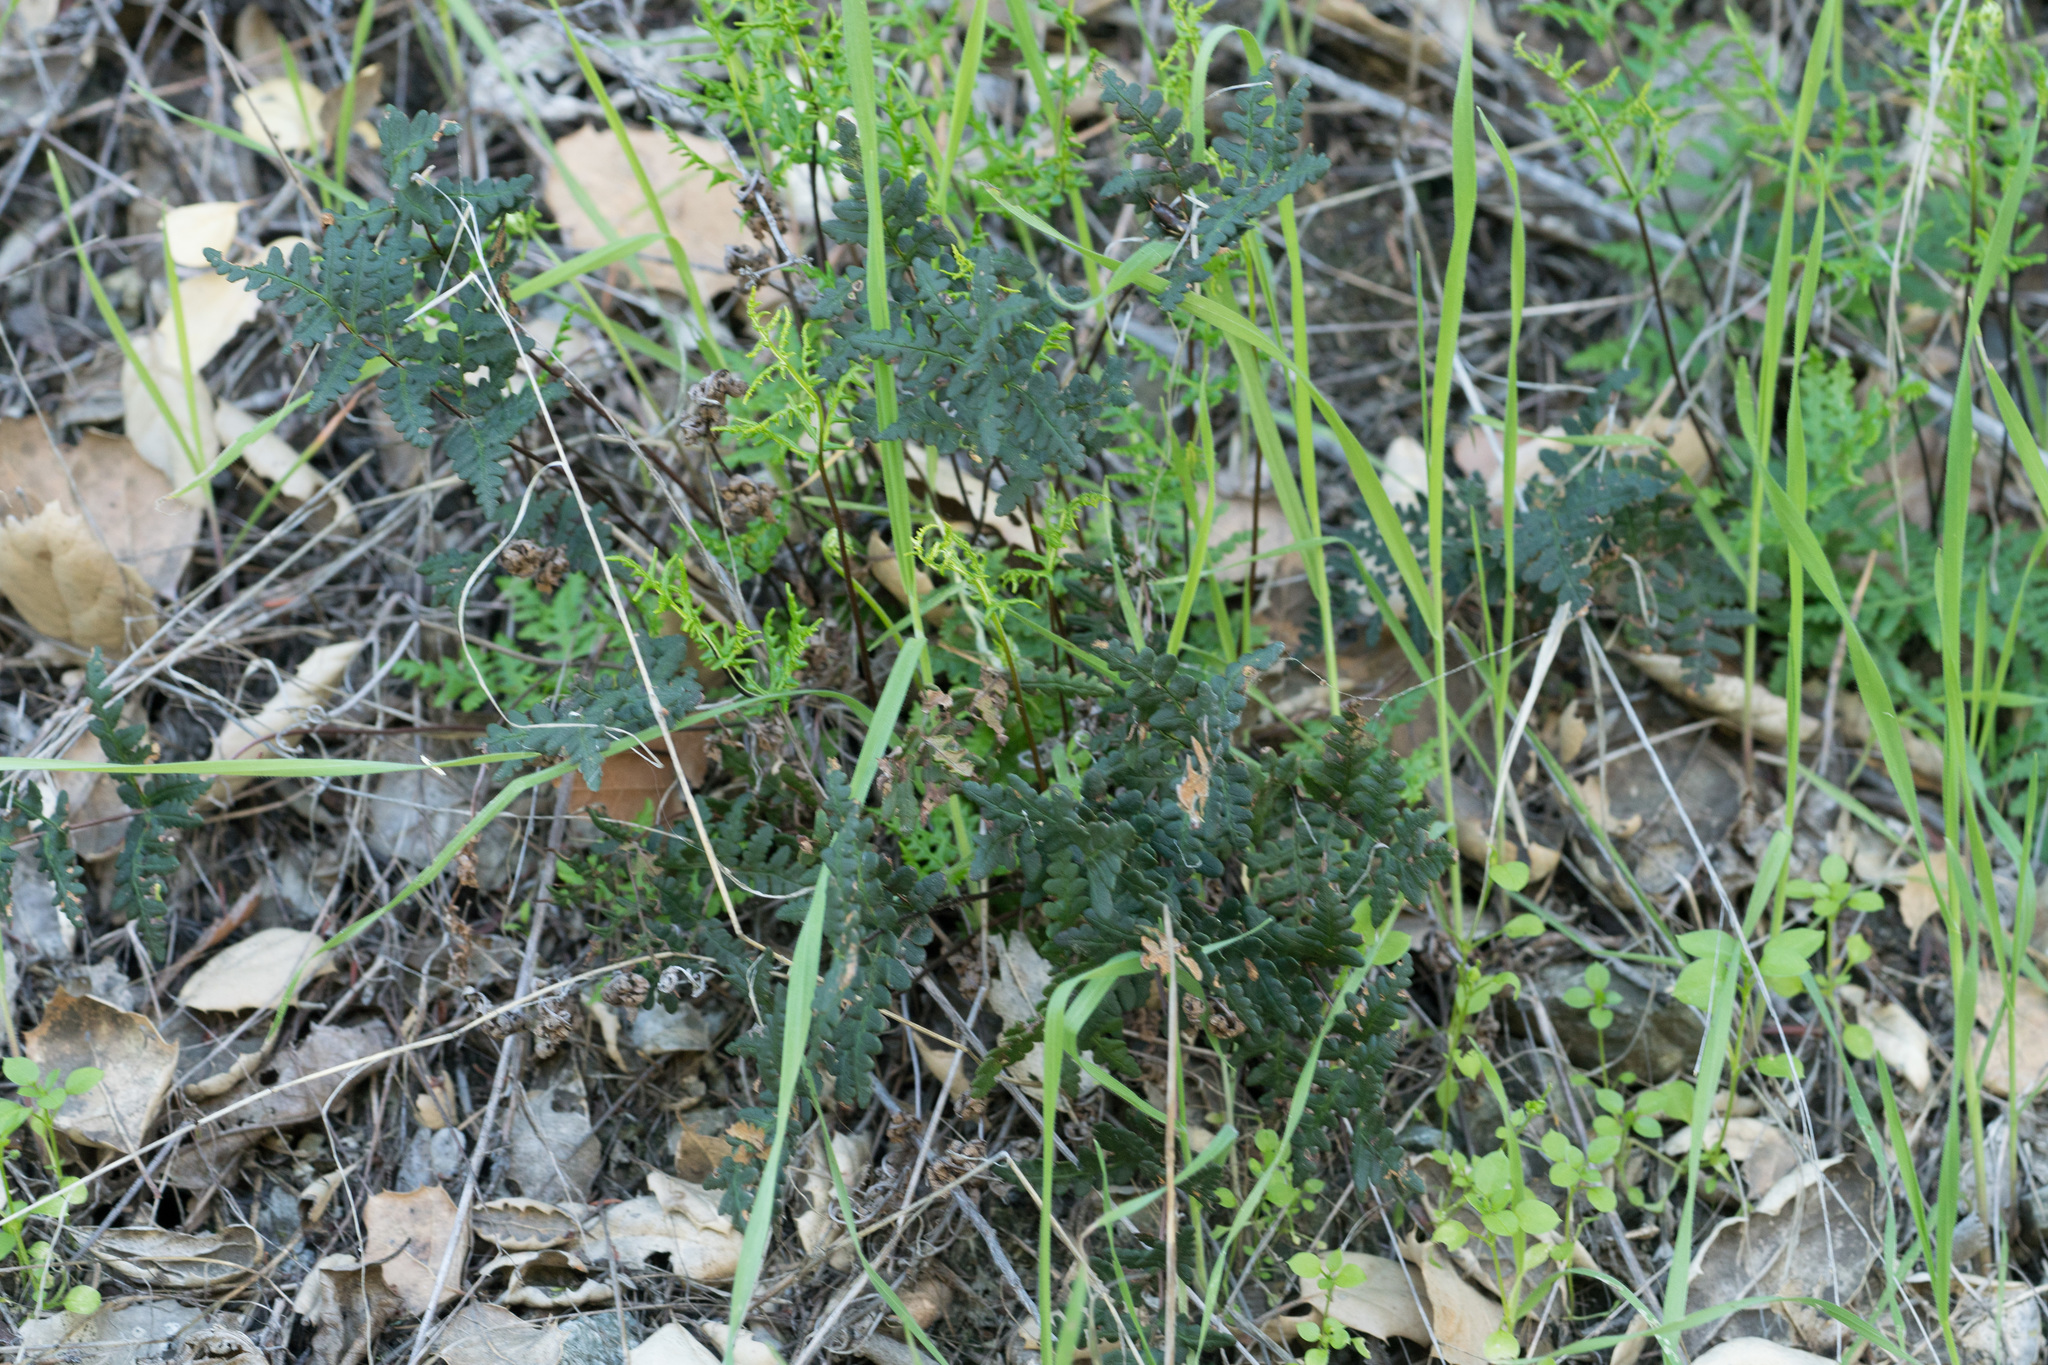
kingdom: Plantae
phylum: Tracheophyta
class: Polypodiopsida
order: Polypodiales
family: Pteridaceae
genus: Pentagramma
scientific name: Pentagramma triangularis
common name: Gold fern
